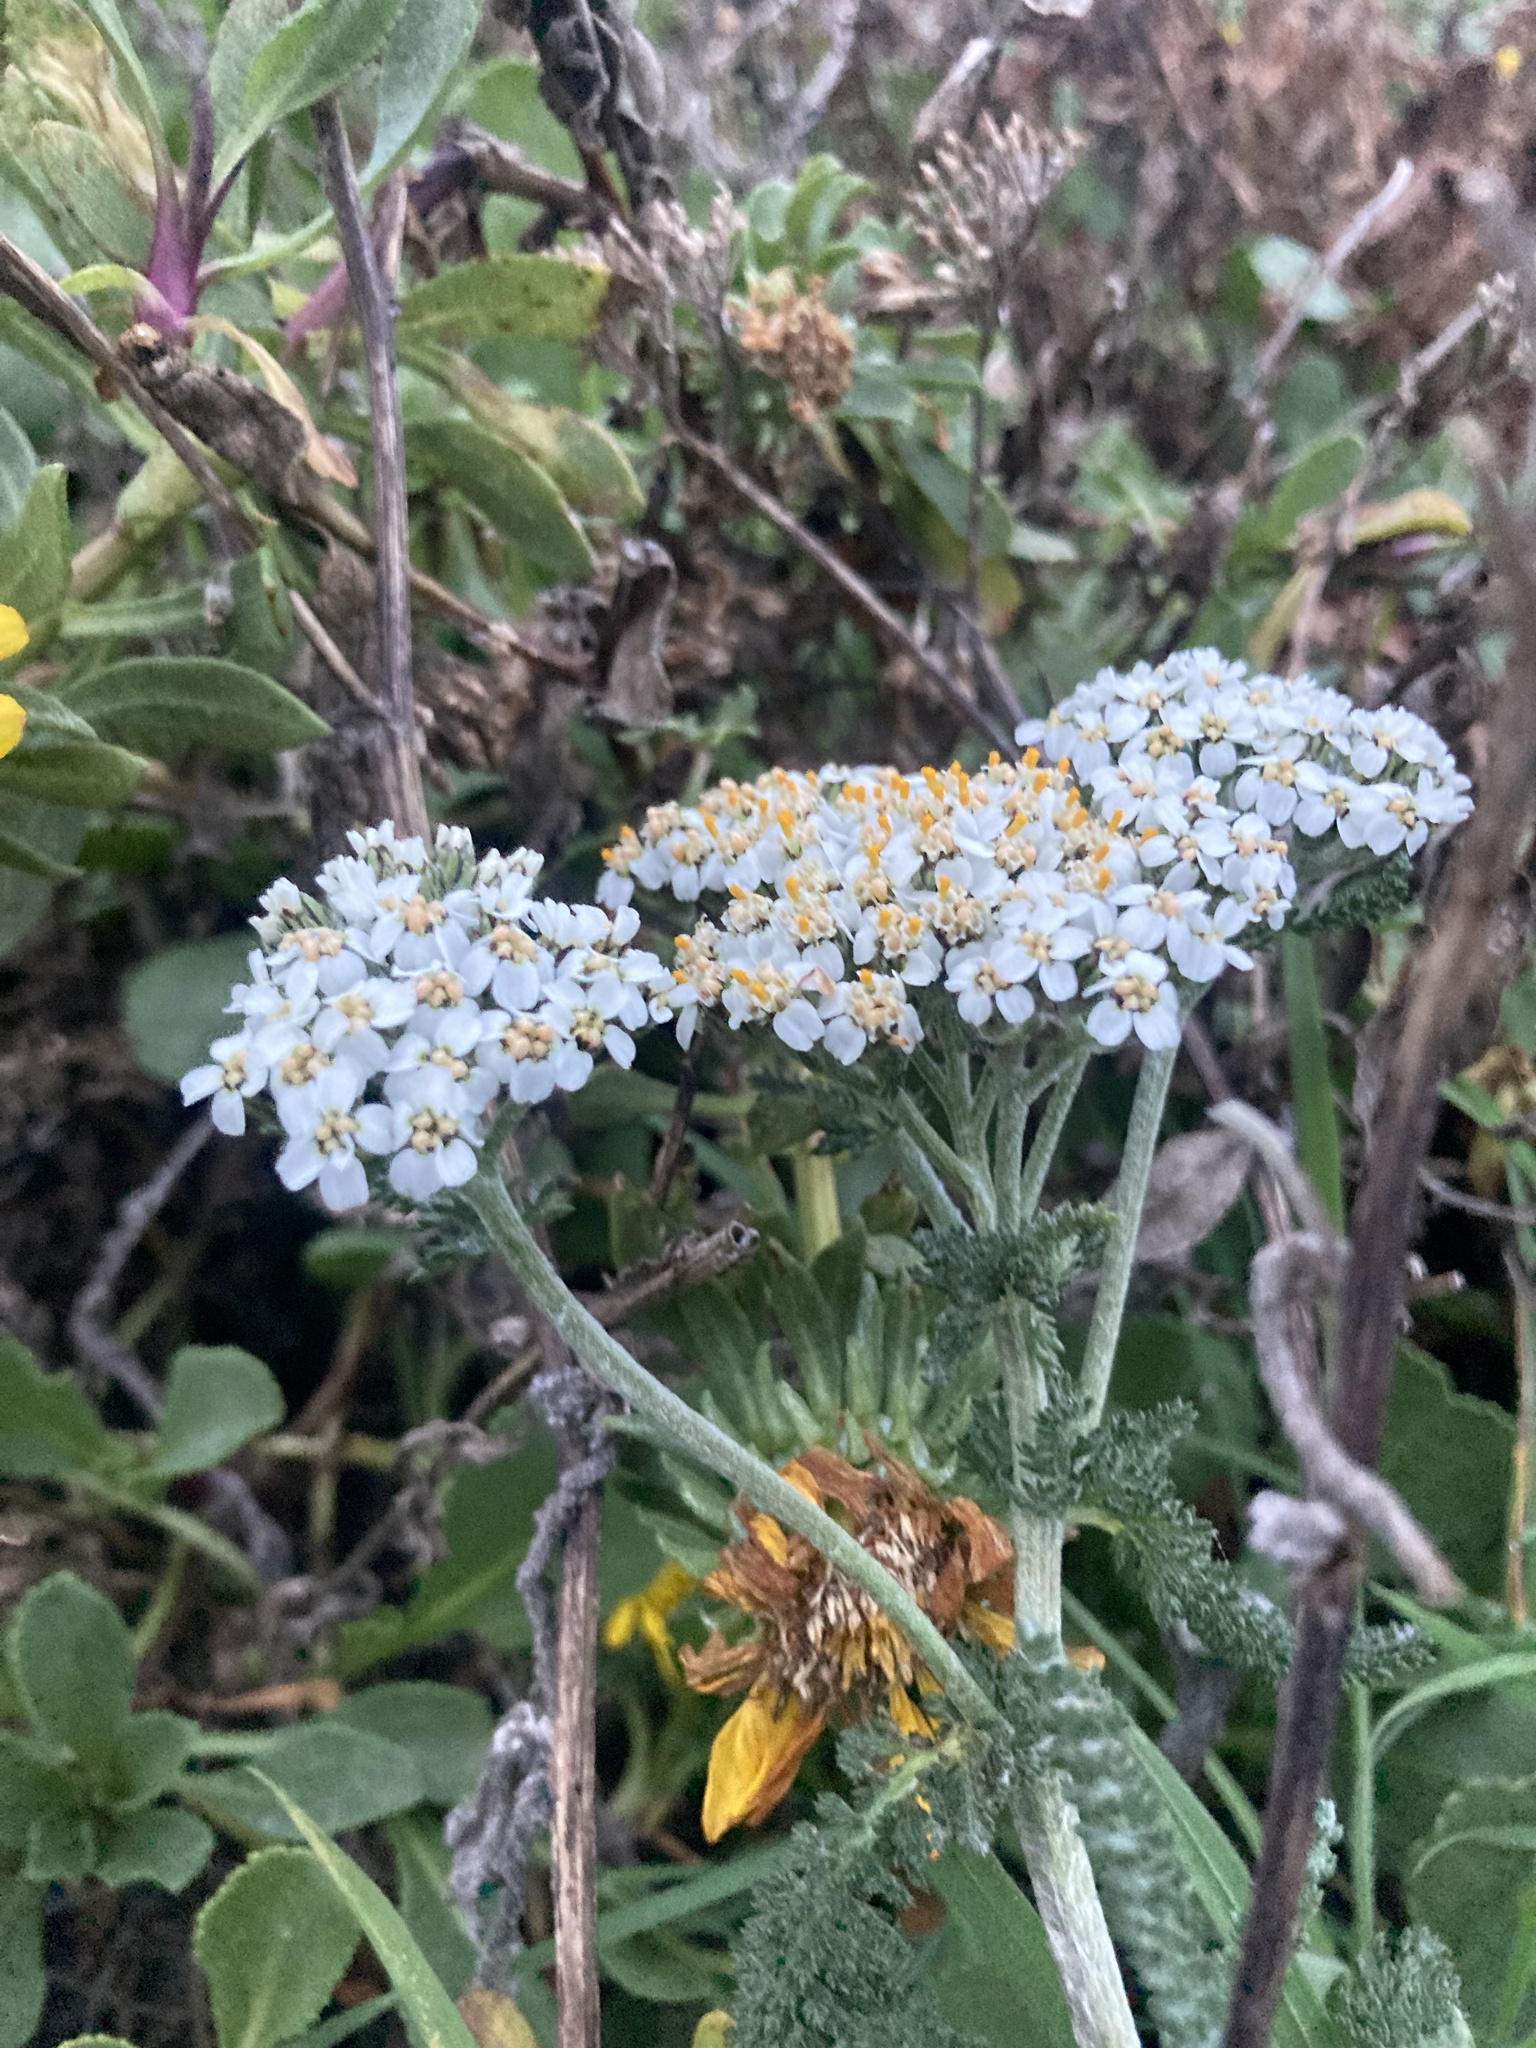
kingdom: Plantae
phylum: Tracheophyta
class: Magnoliopsida
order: Asterales
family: Asteraceae
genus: Achillea
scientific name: Achillea millefolium
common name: Yarrow
